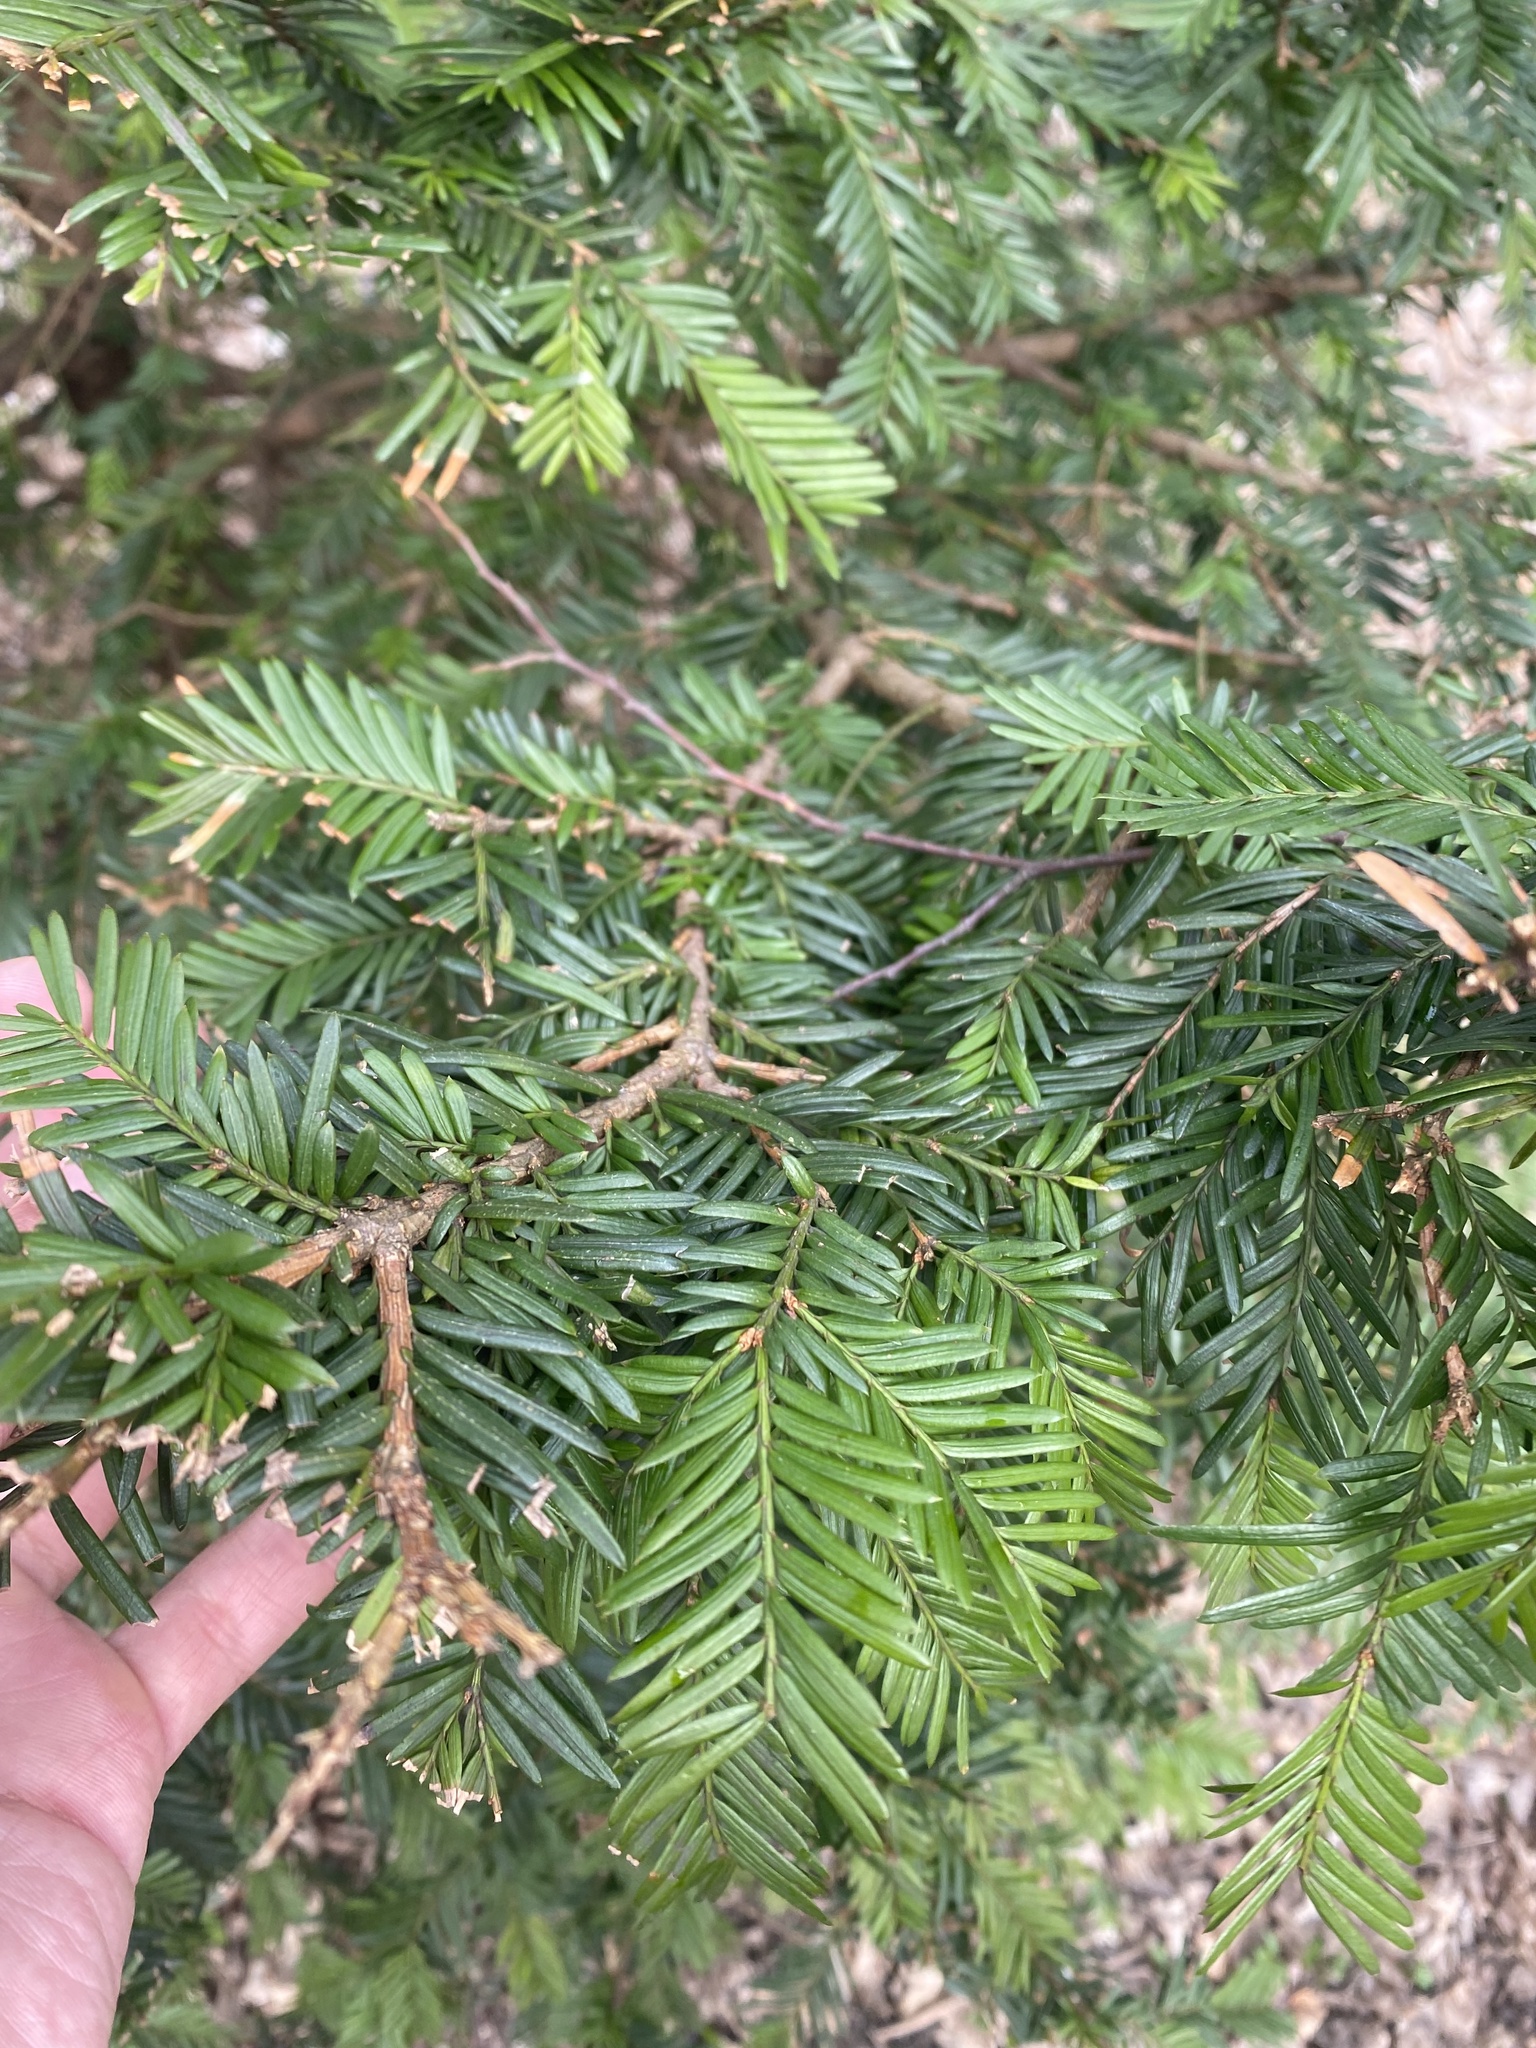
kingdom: Plantae
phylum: Tracheophyta
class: Pinopsida
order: Pinales
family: Taxaceae
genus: Taxus
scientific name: Taxus baccata
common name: Yew
